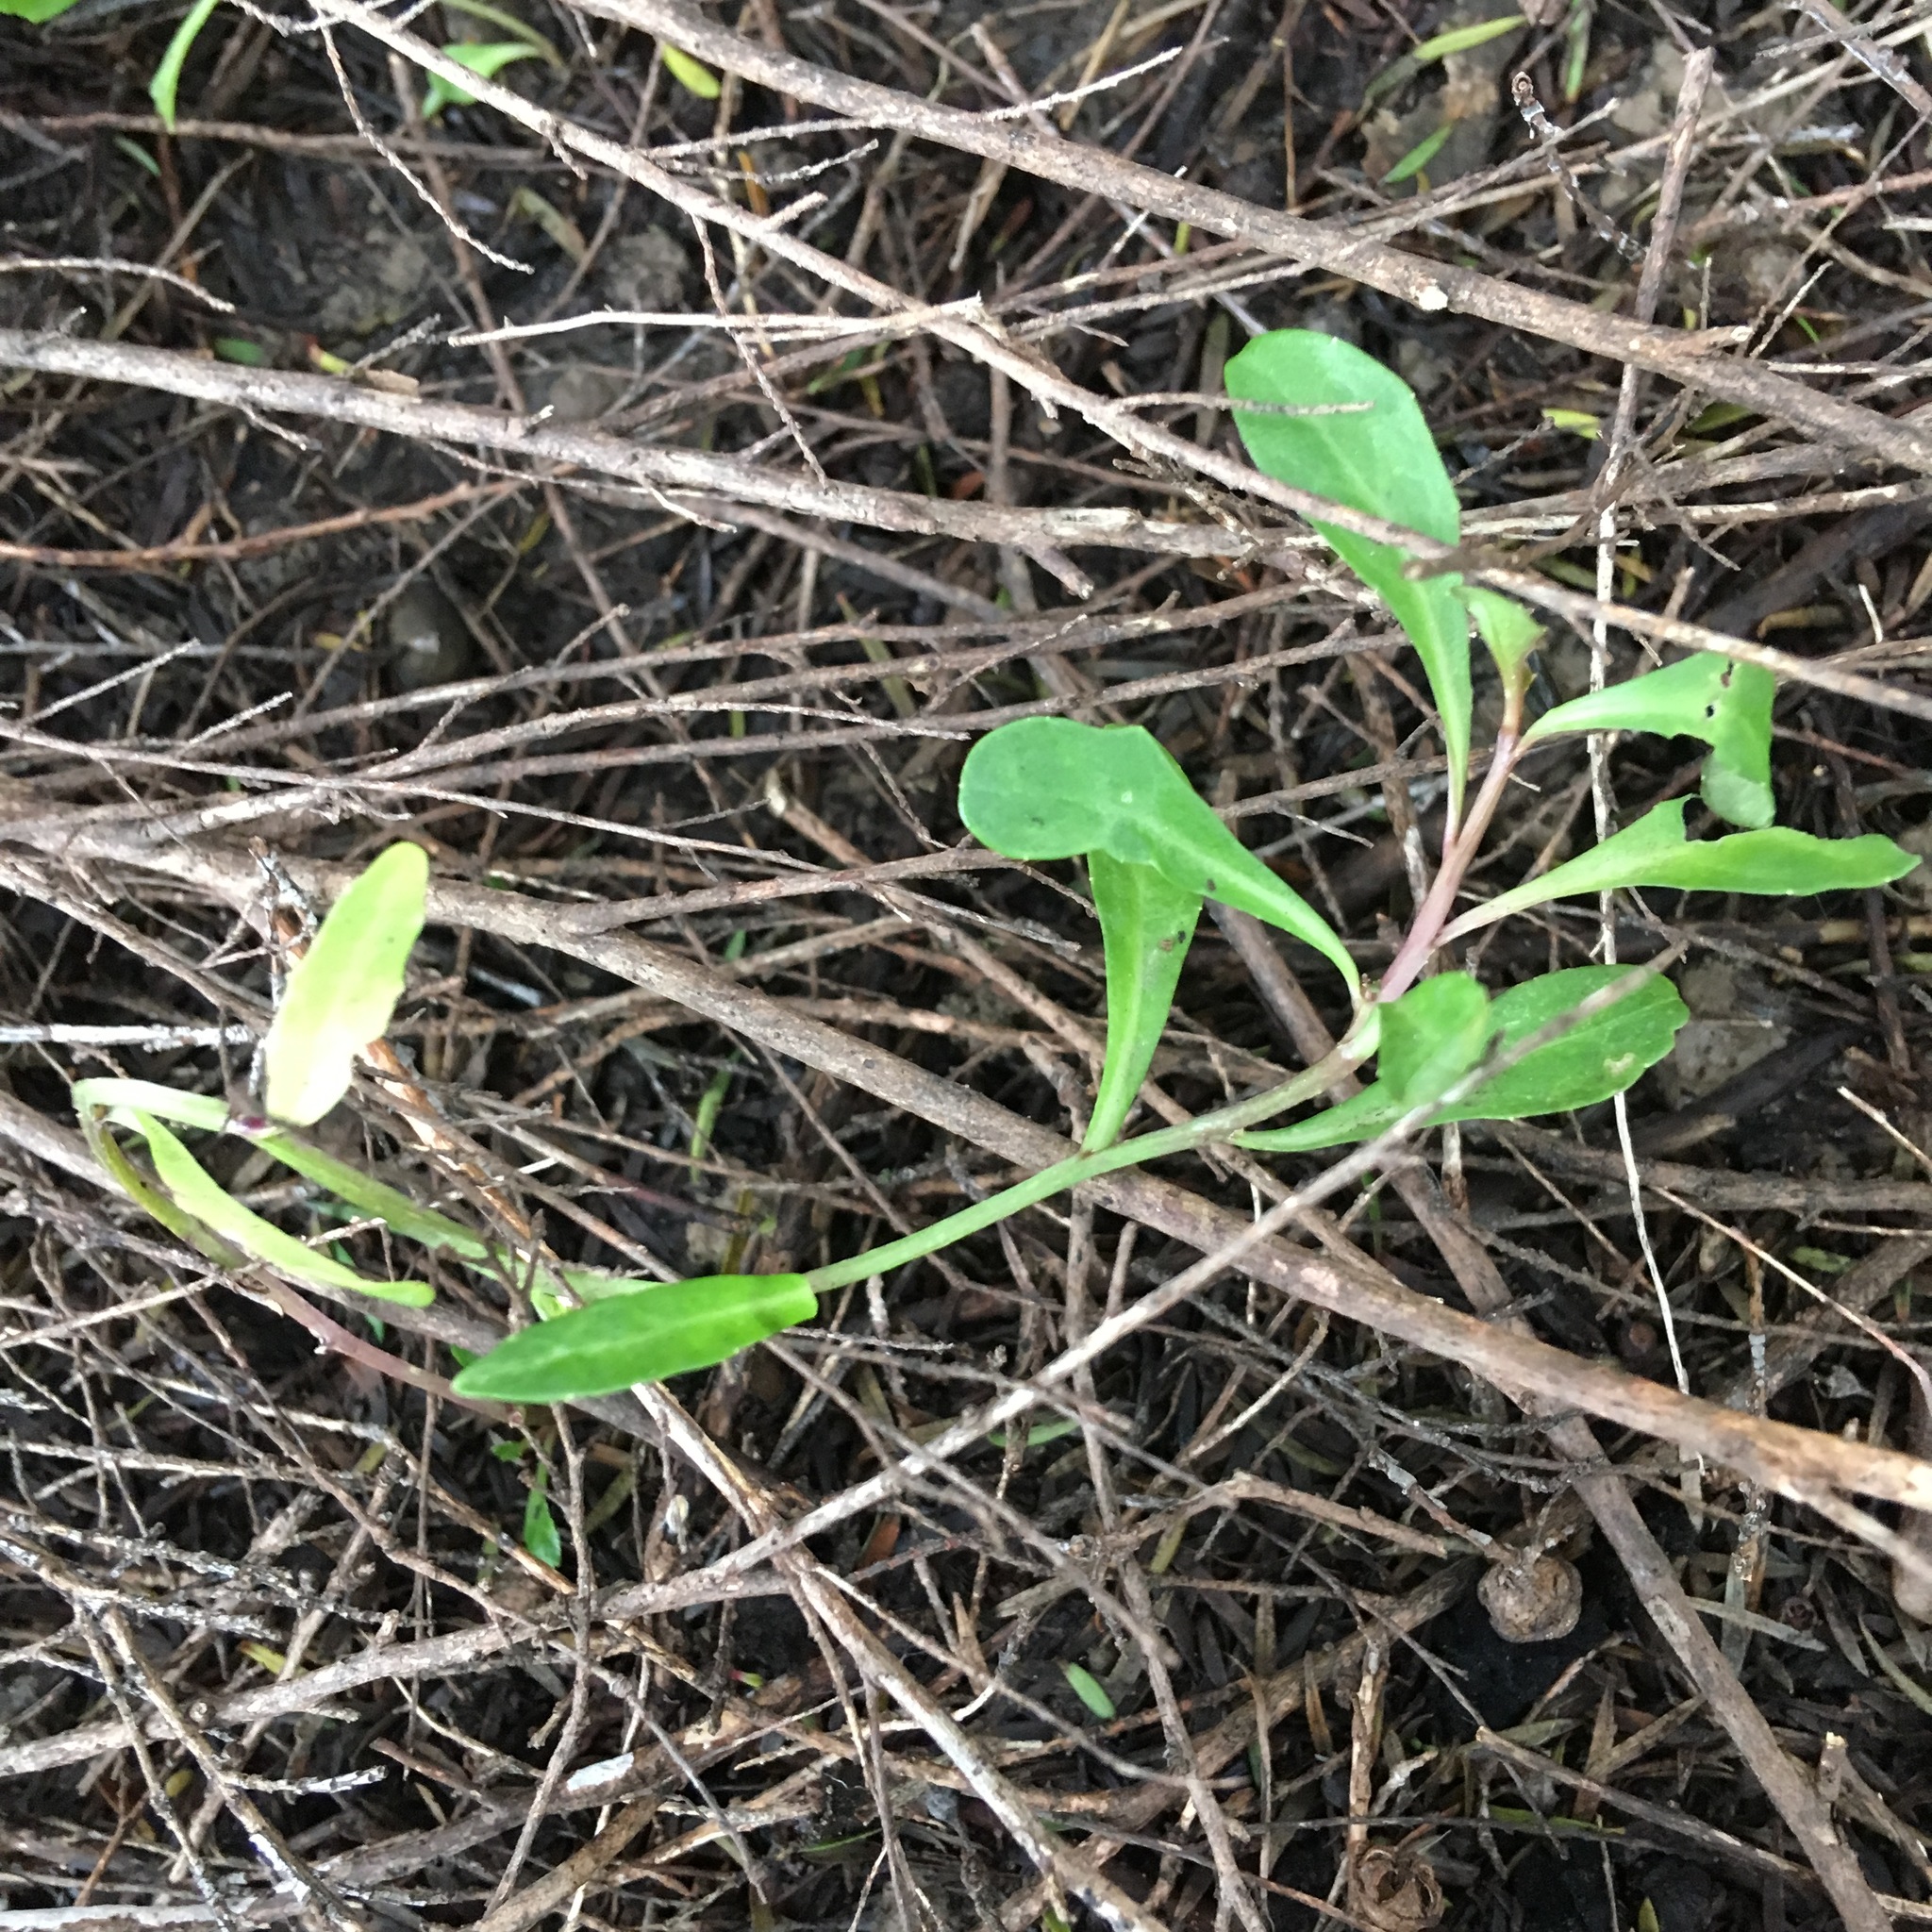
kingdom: Plantae
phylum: Tracheophyta
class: Magnoliopsida
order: Asterales
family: Campanulaceae
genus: Lobelia
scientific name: Lobelia anceps
